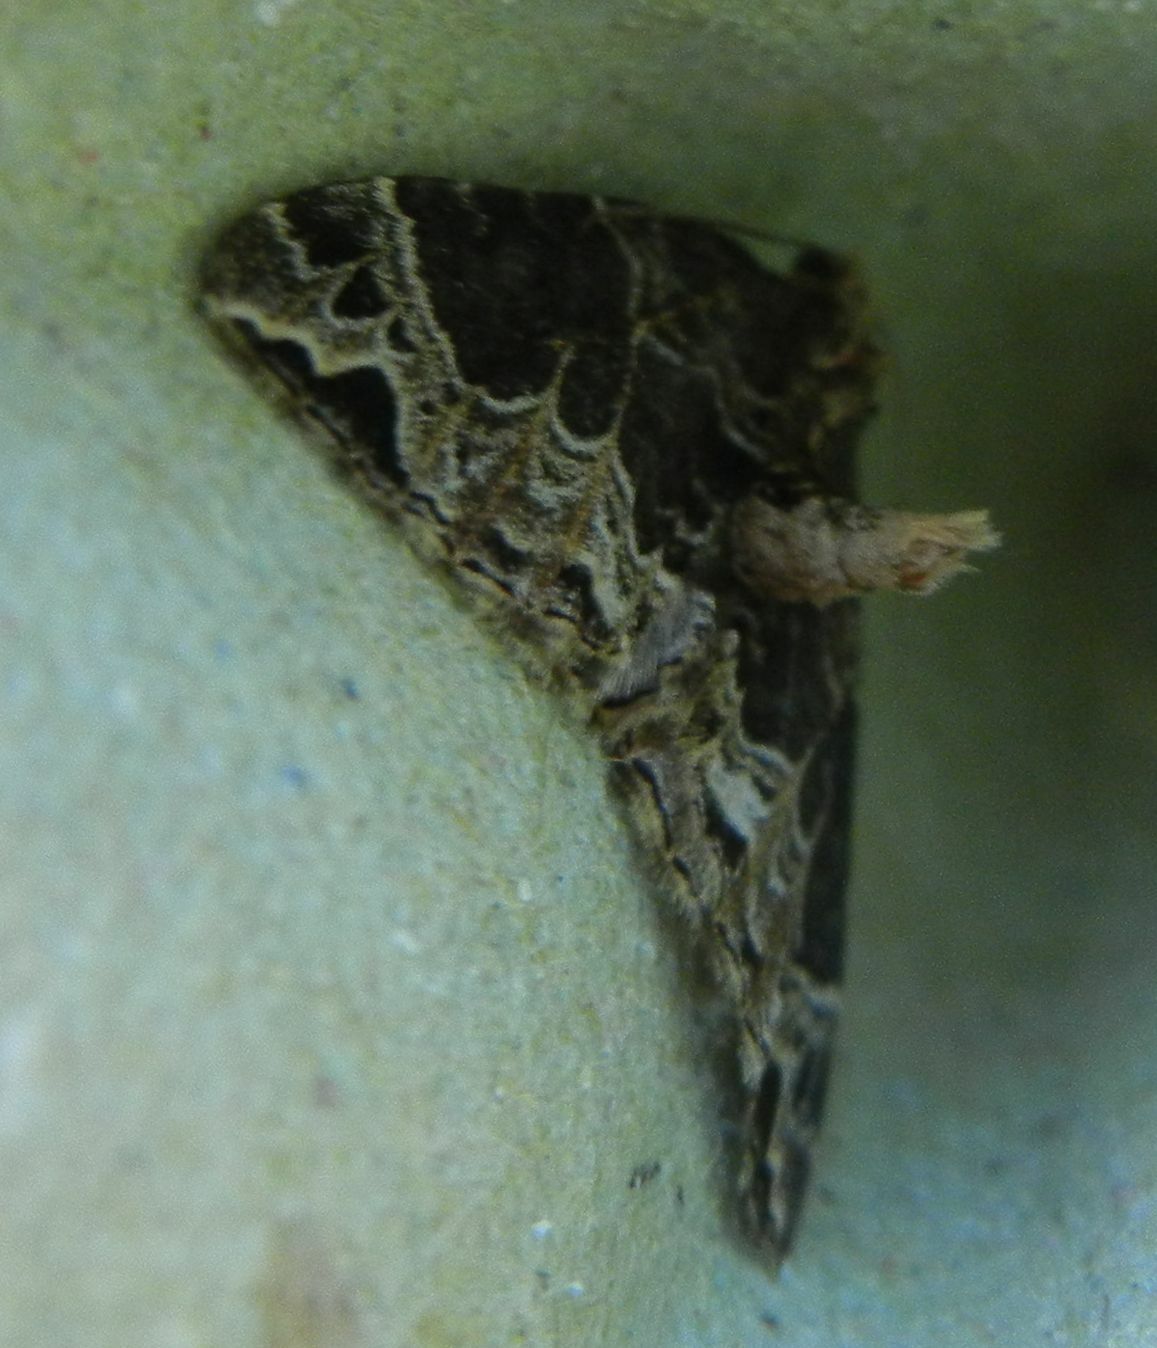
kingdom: Animalia
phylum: Arthropoda
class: Insecta
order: Lepidoptera
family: Geometridae
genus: Ecliptopera
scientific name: Ecliptopera silaceata
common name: Small phoenix
